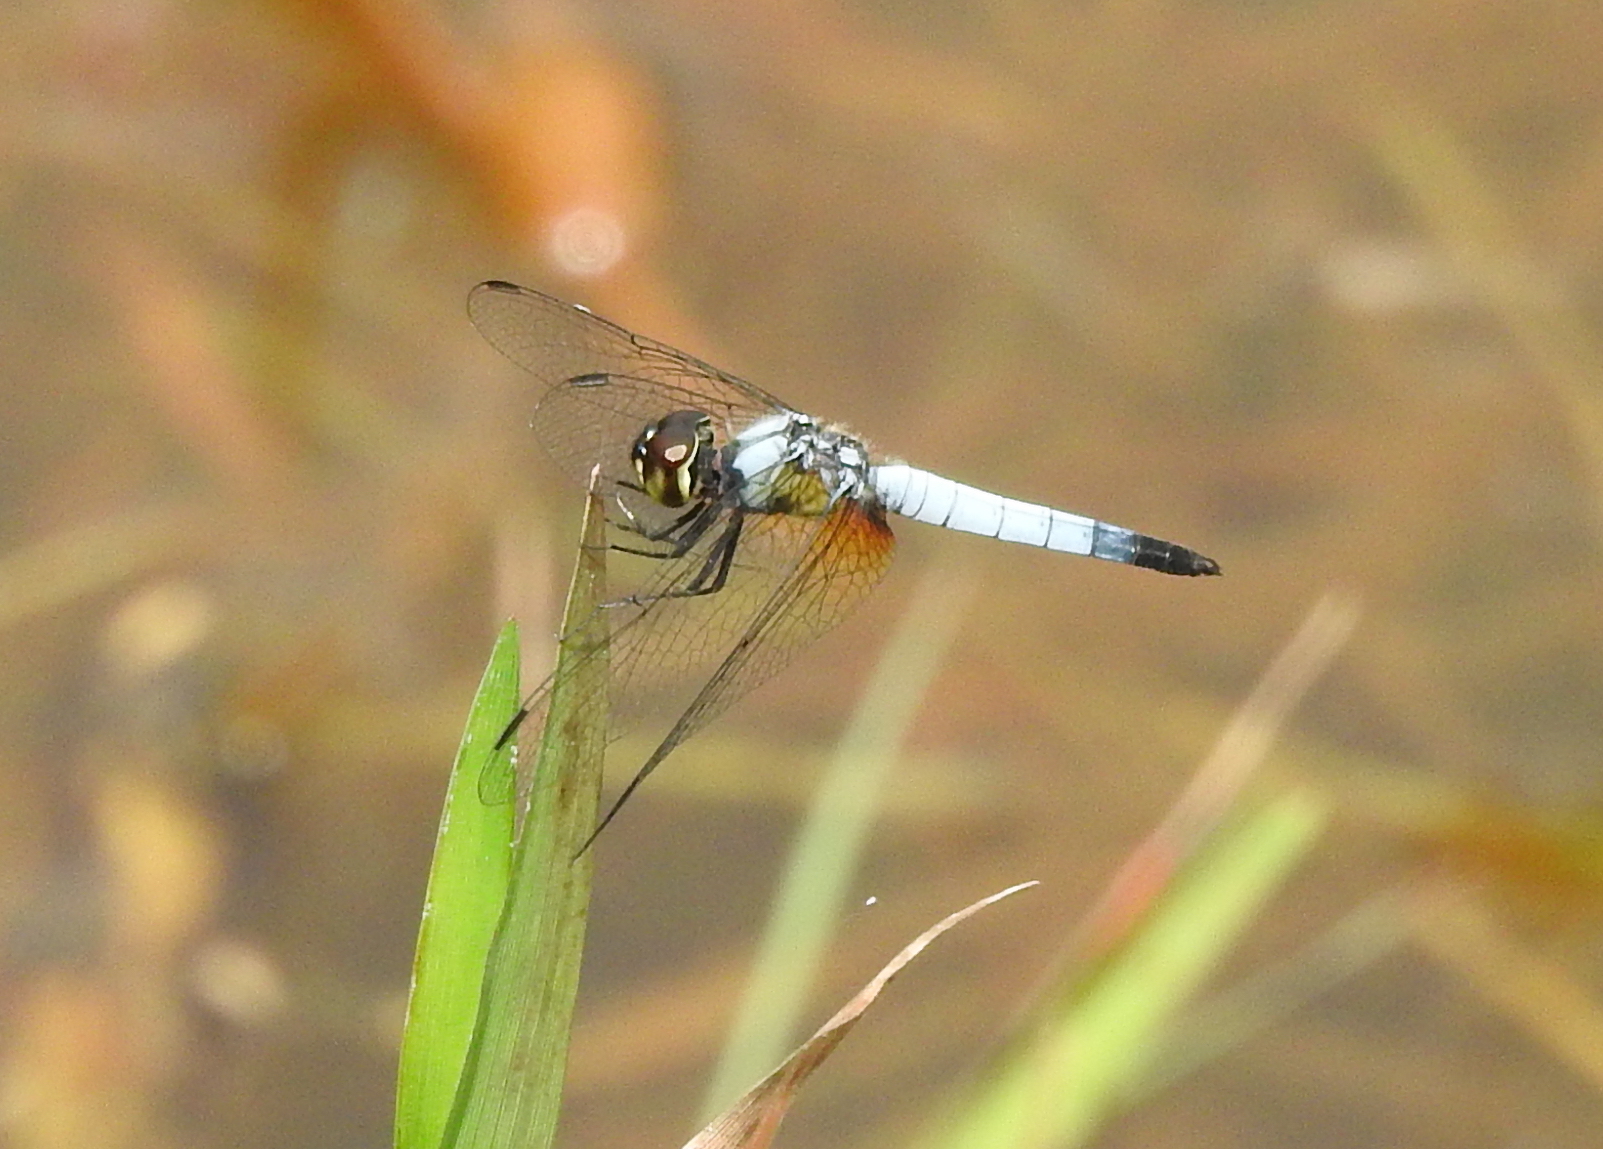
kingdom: Animalia
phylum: Arthropoda
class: Insecta
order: Odonata
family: Libellulidae
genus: Aethriamanta
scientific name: Aethriamanta gracilis
